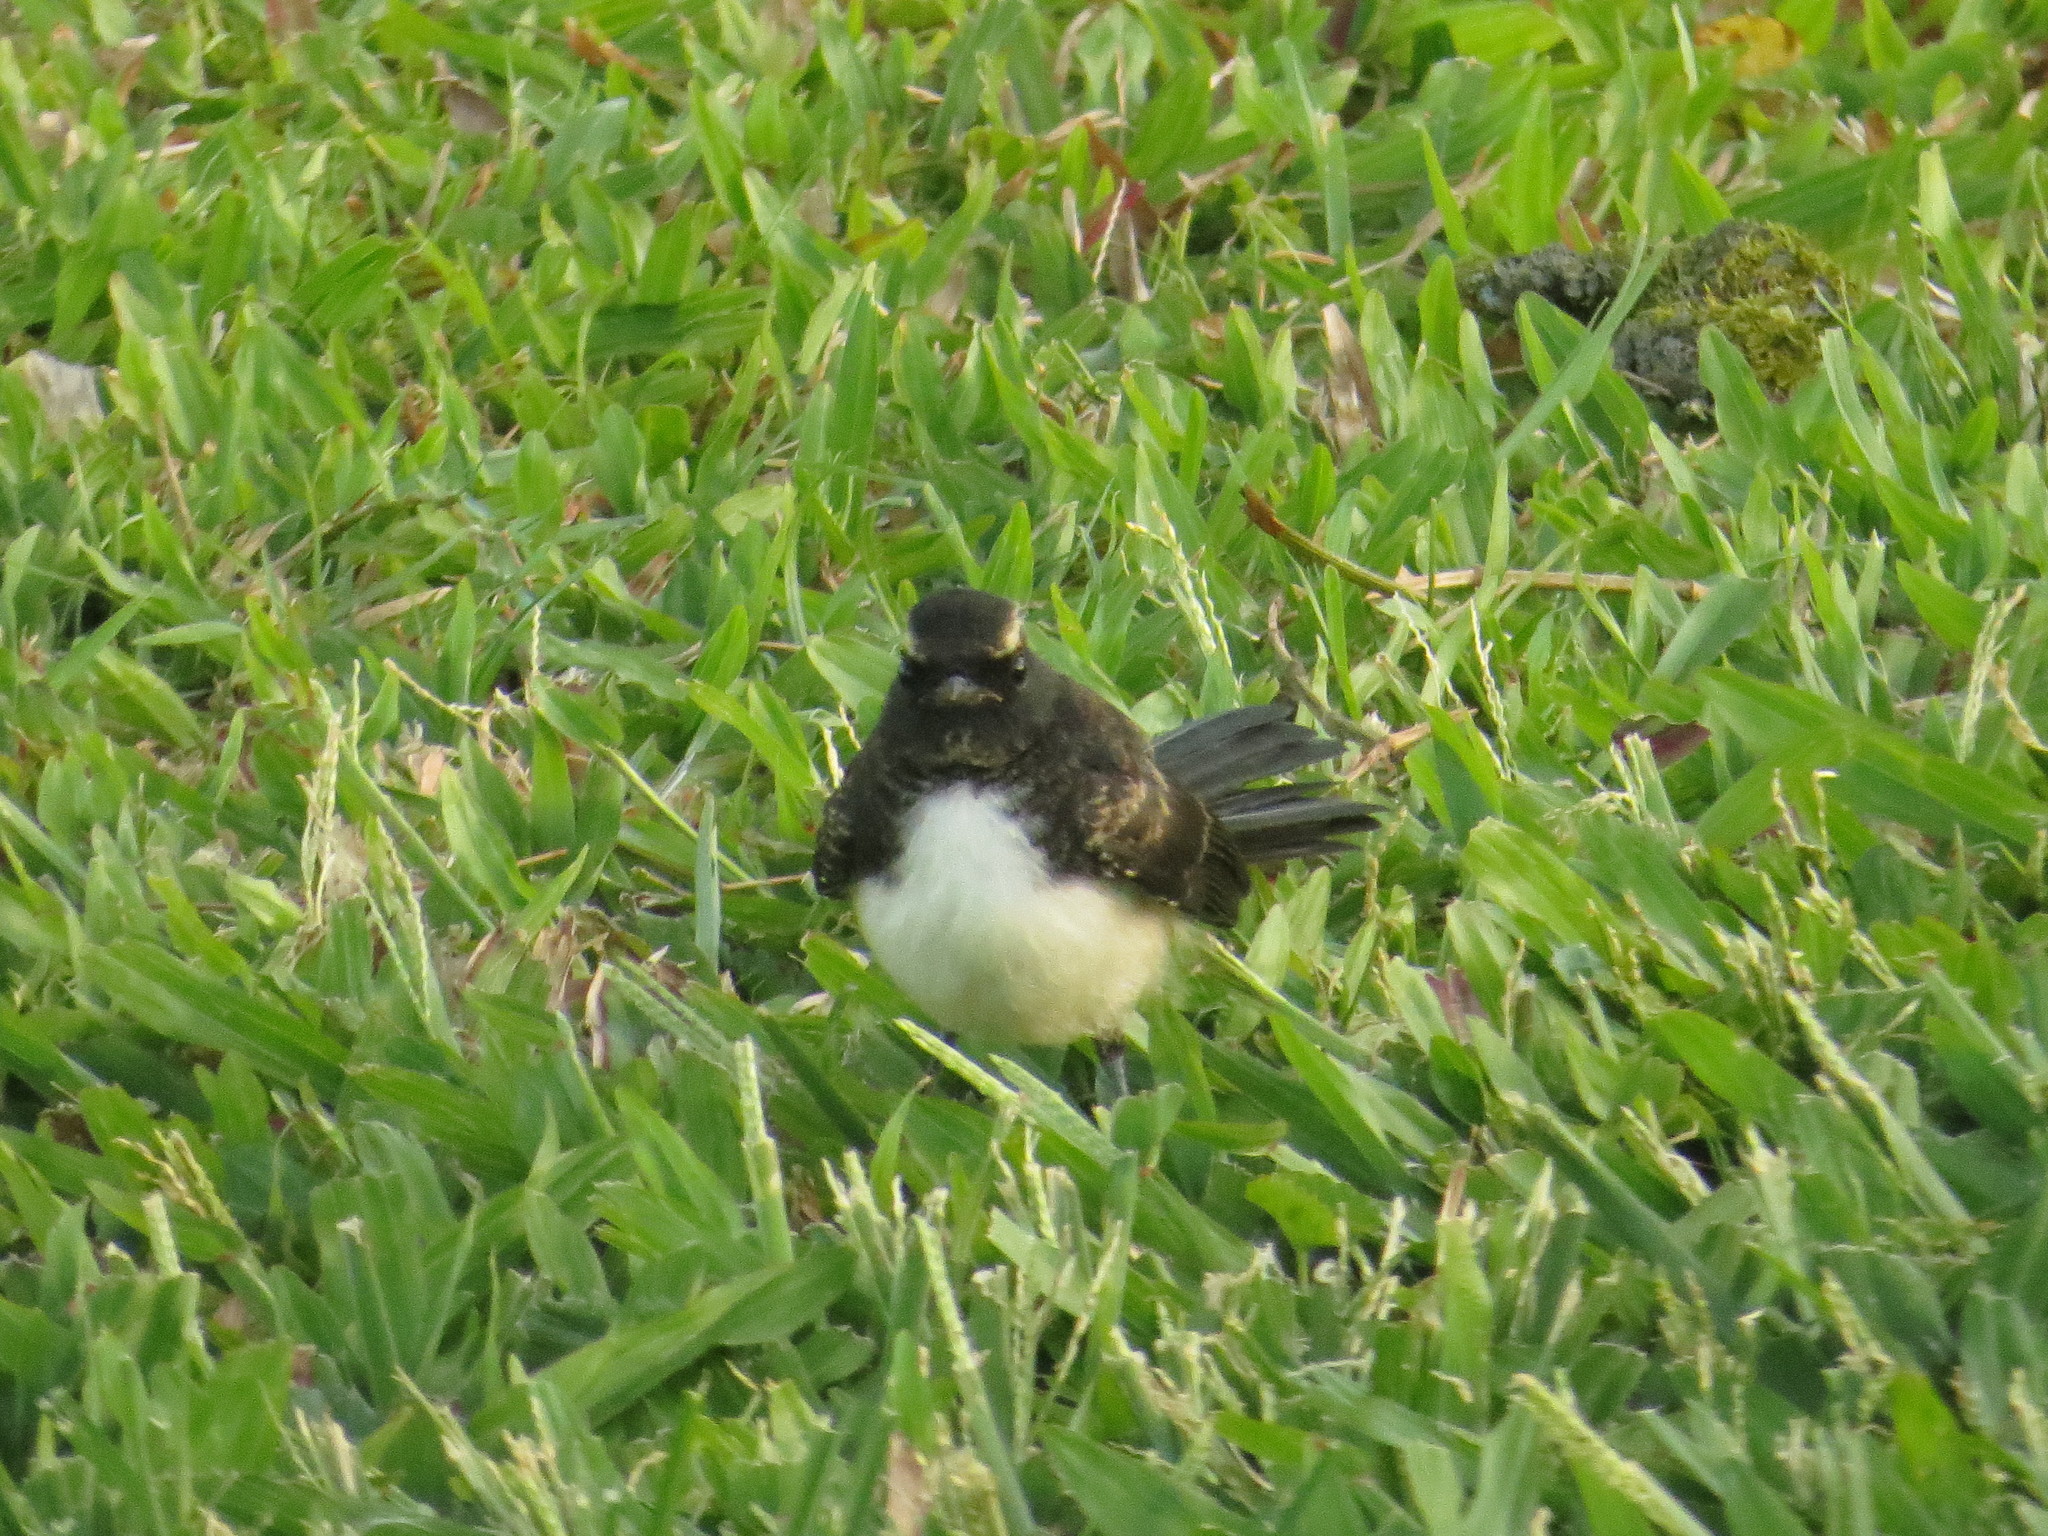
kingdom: Animalia
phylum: Chordata
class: Aves
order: Passeriformes
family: Rhipiduridae
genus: Rhipidura
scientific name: Rhipidura leucophrys
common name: Willie wagtail
